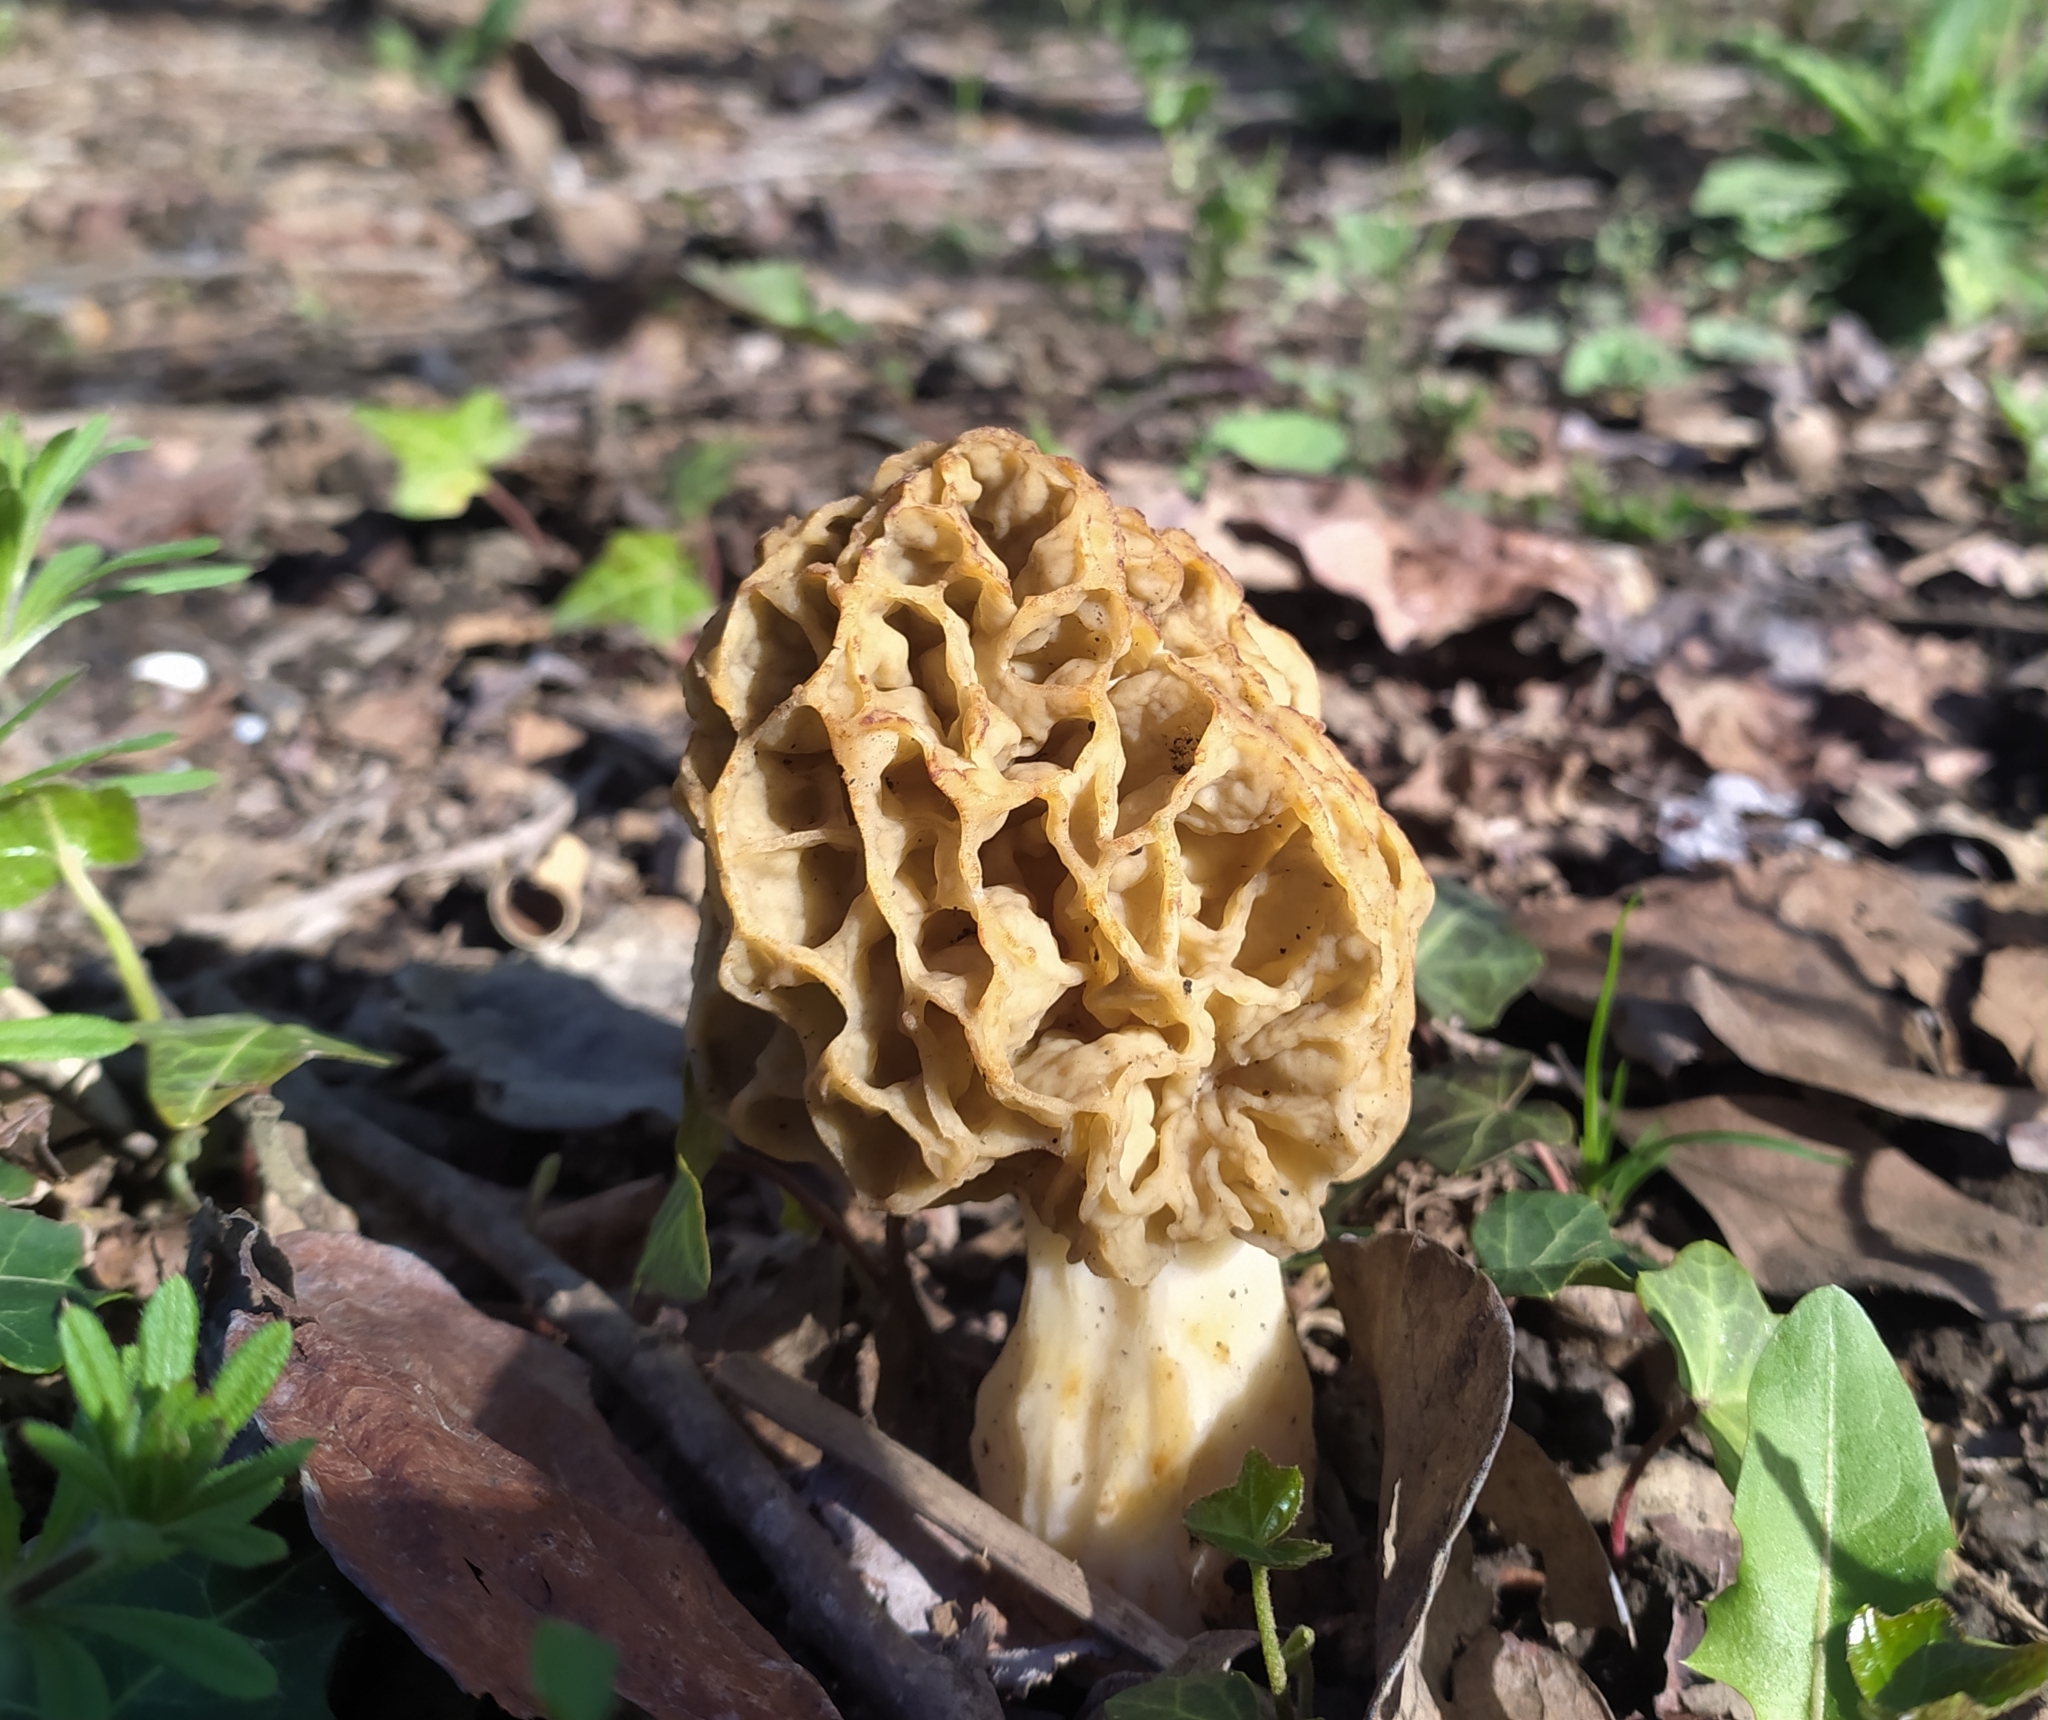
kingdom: Fungi
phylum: Ascomycota
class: Pezizomycetes
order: Pezizales
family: Morchellaceae
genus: Morchella
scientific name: Morchella esculenta
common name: Morel
